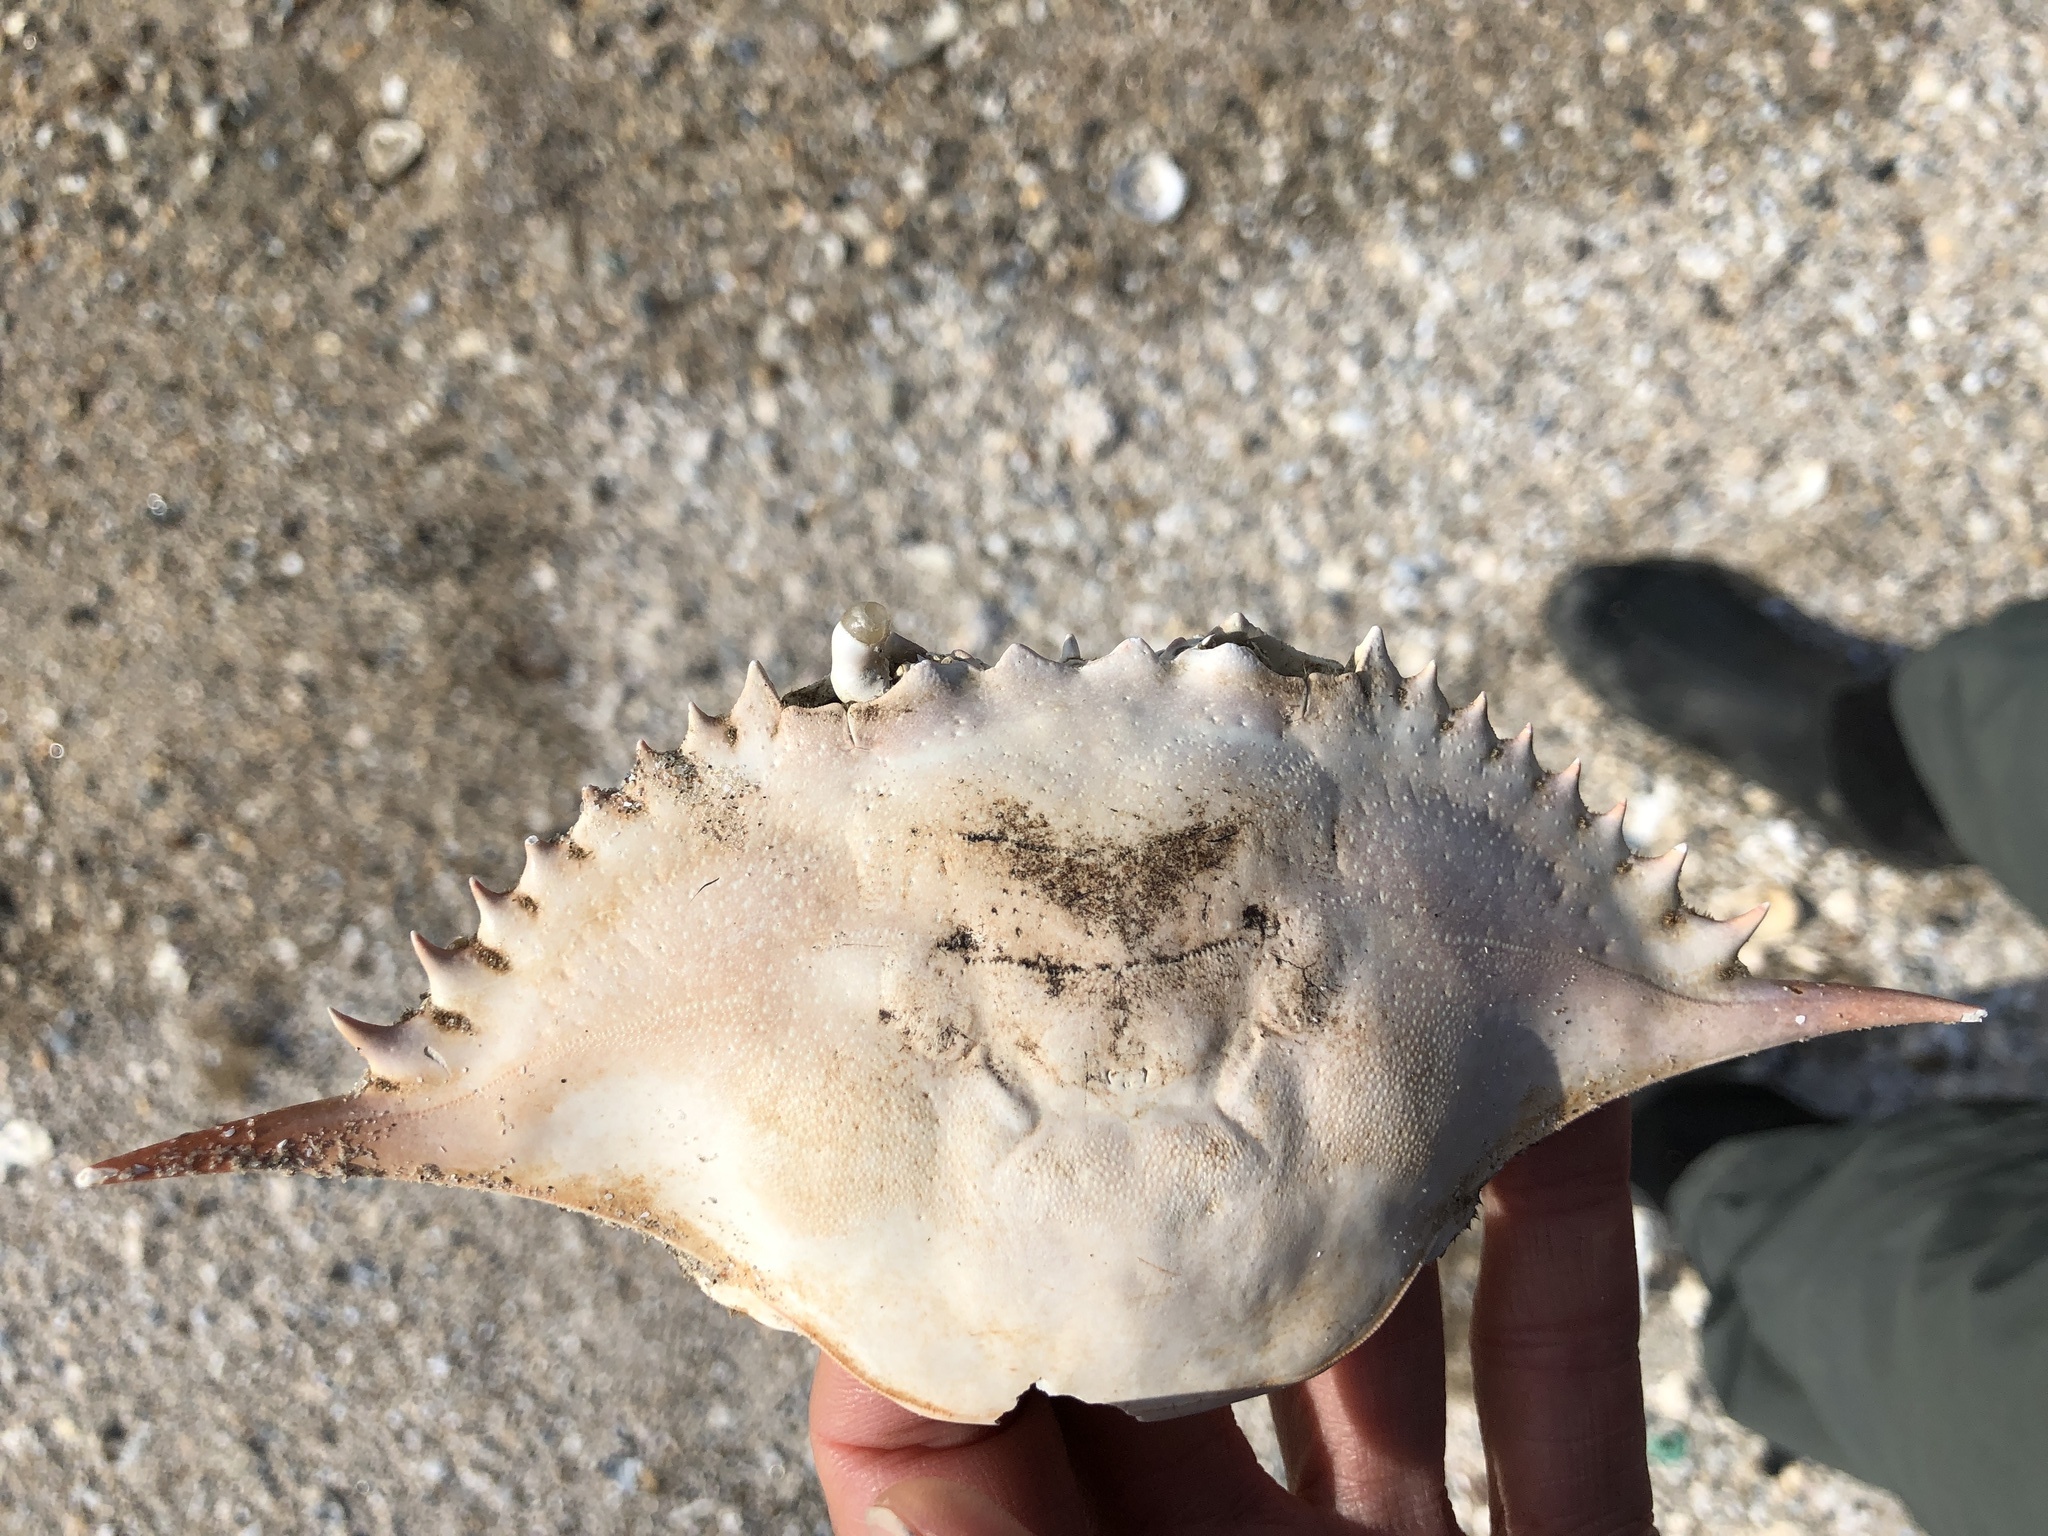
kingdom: Animalia
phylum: Arthropoda
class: Malacostraca
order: Decapoda
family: Portunidae
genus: Callinectes
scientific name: Callinectes sapidus
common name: Blue crab
